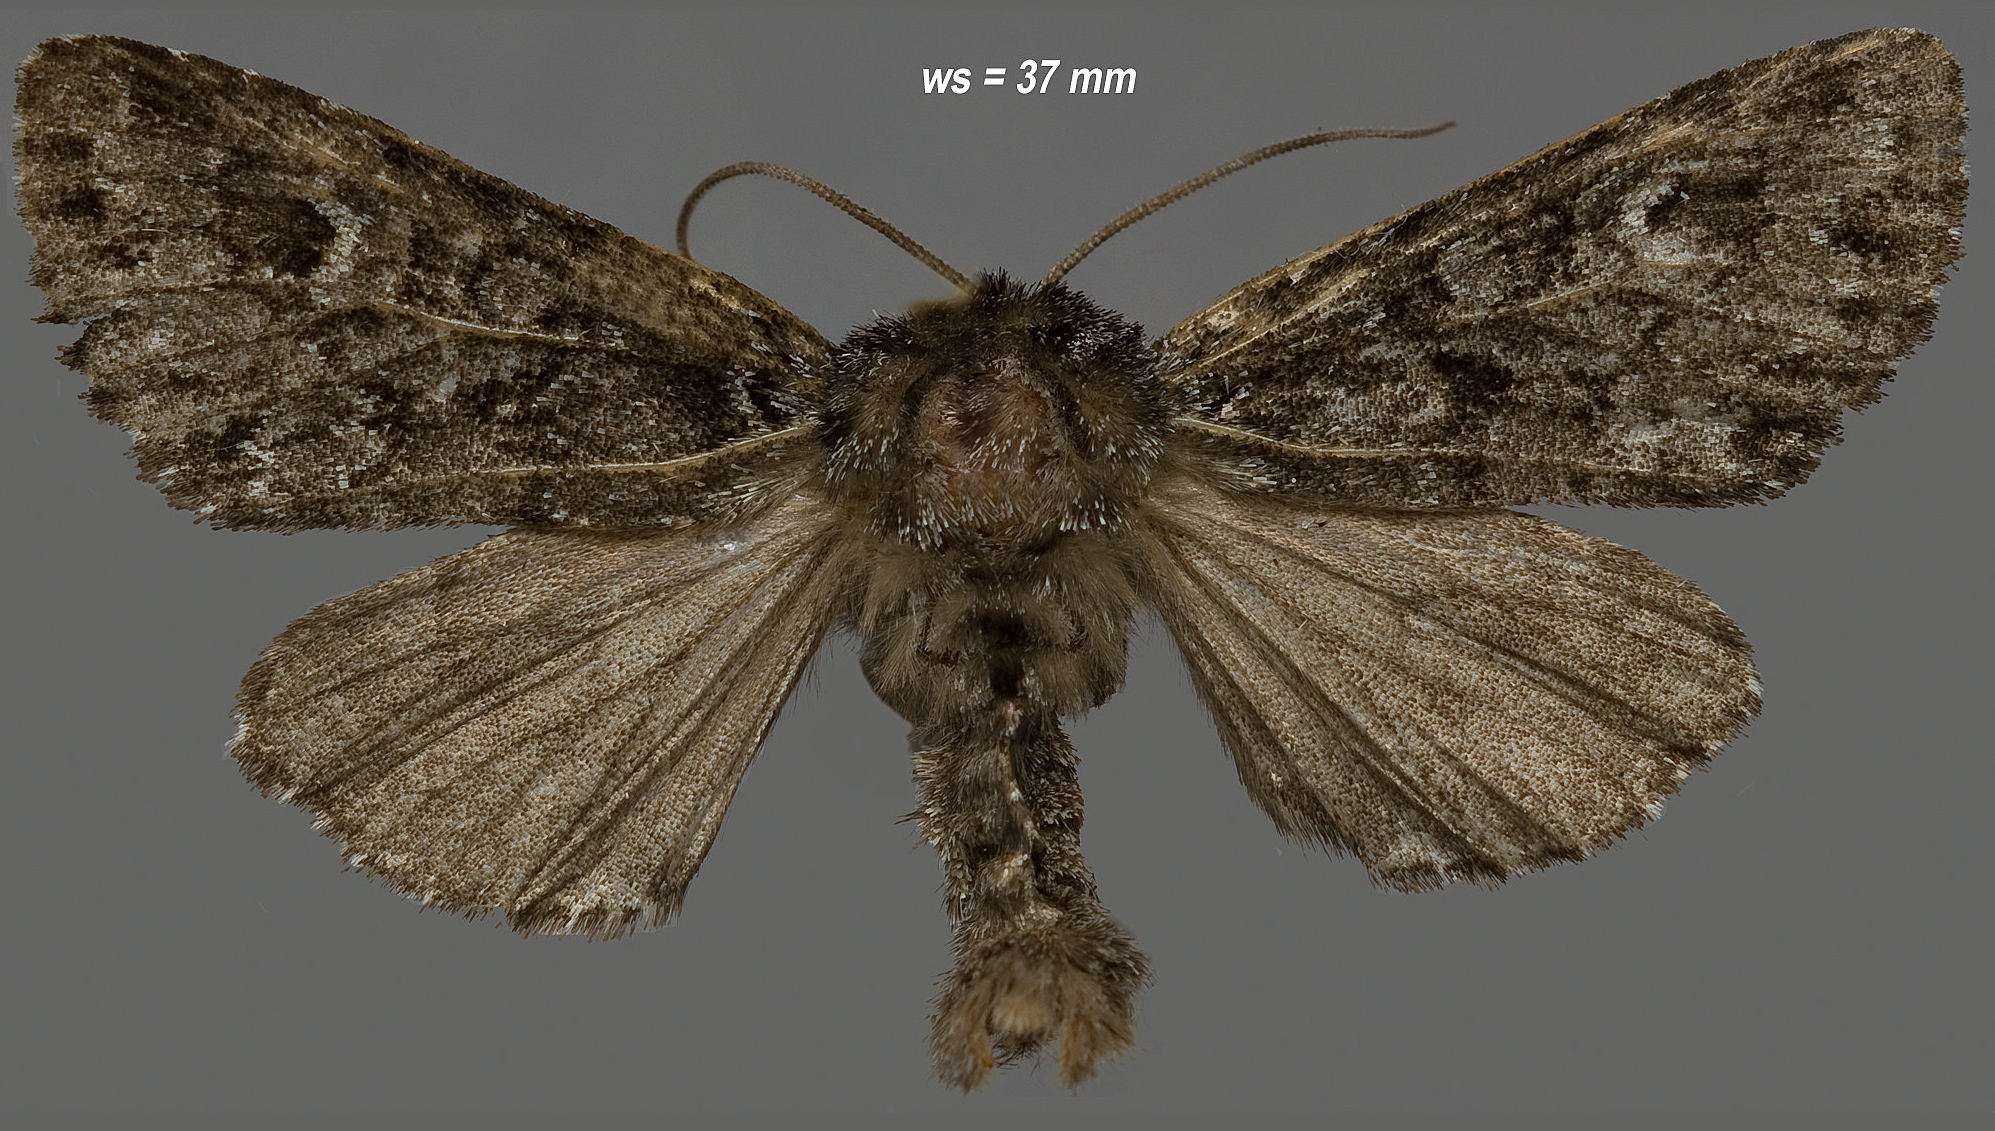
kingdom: Animalia
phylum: Arthropoda
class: Insecta
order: Lepidoptera
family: Noctuidae
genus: Lasionycta
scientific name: Lasionycta taigata
